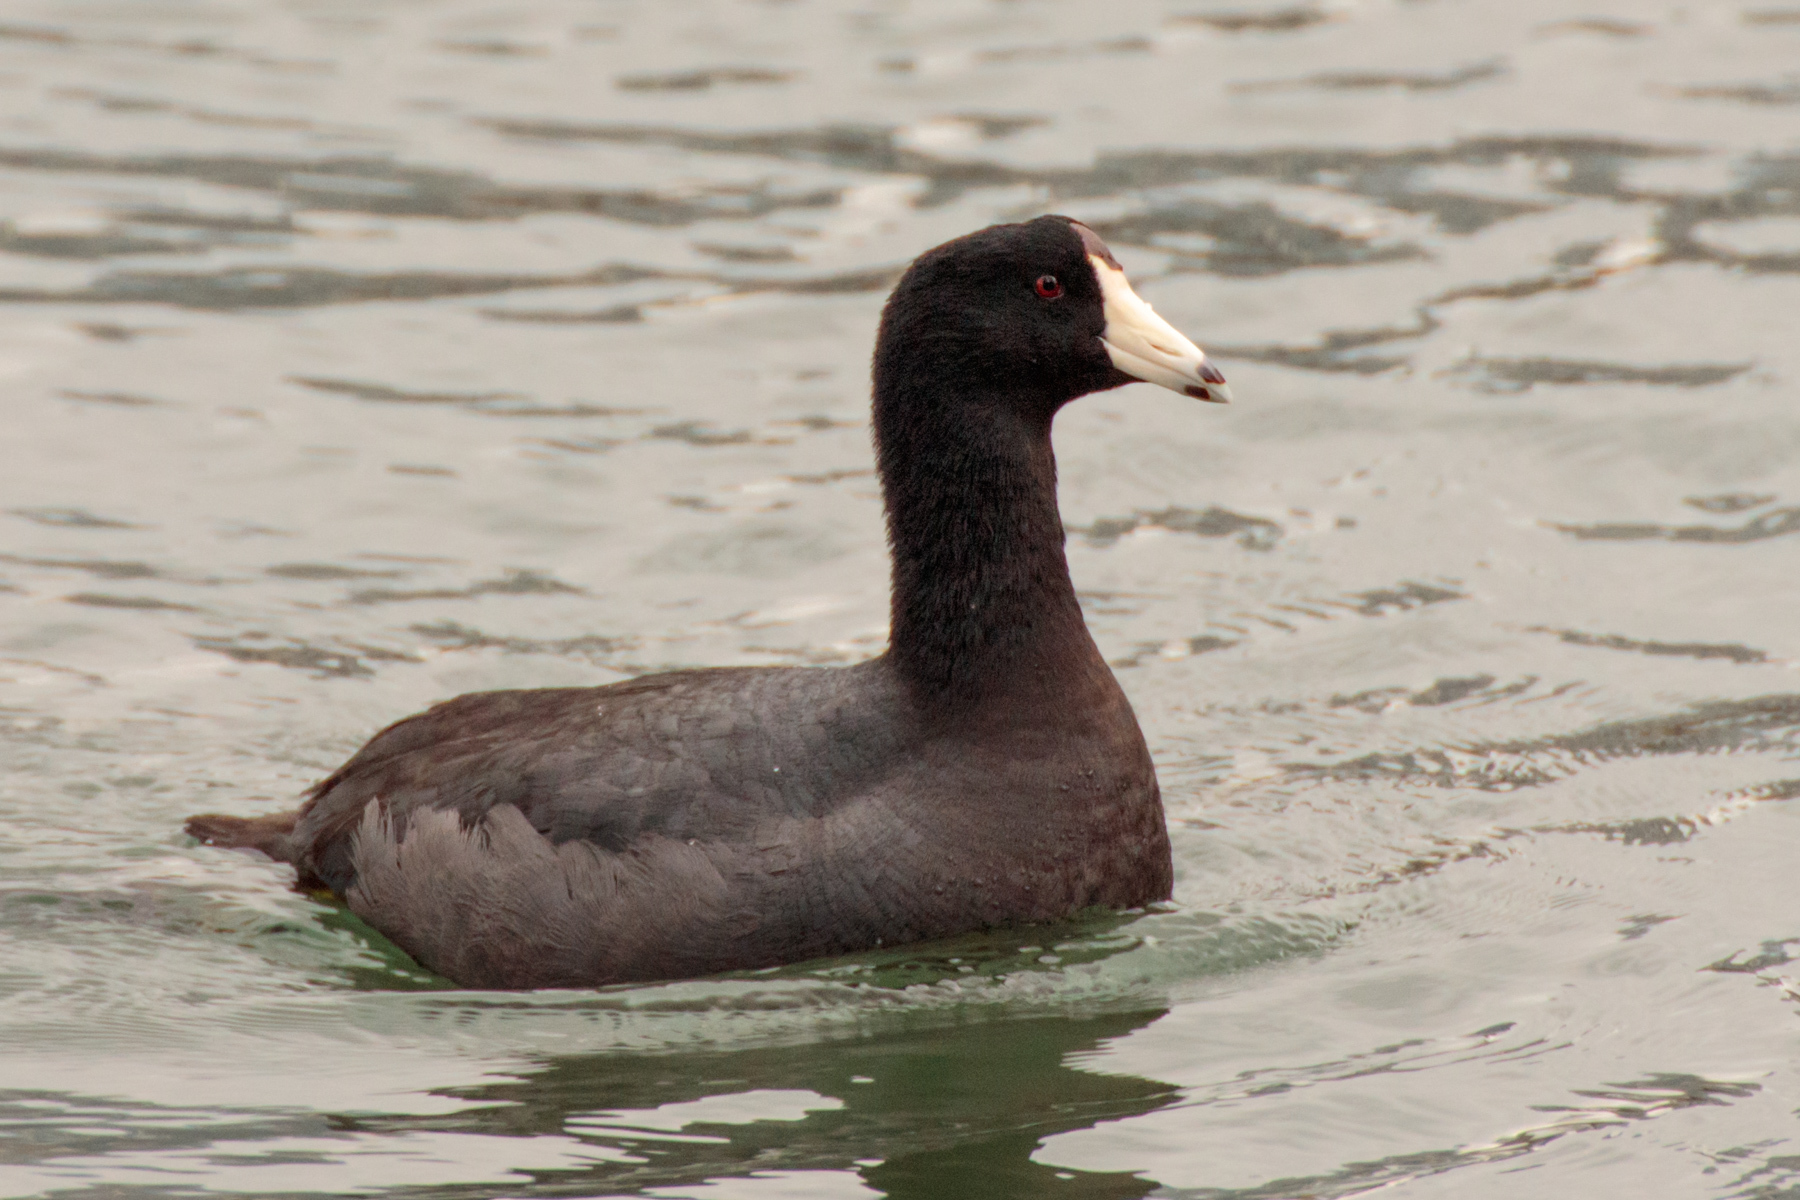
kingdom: Animalia
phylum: Chordata
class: Aves
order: Gruiformes
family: Rallidae
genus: Fulica
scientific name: Fulica americana
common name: American coot
